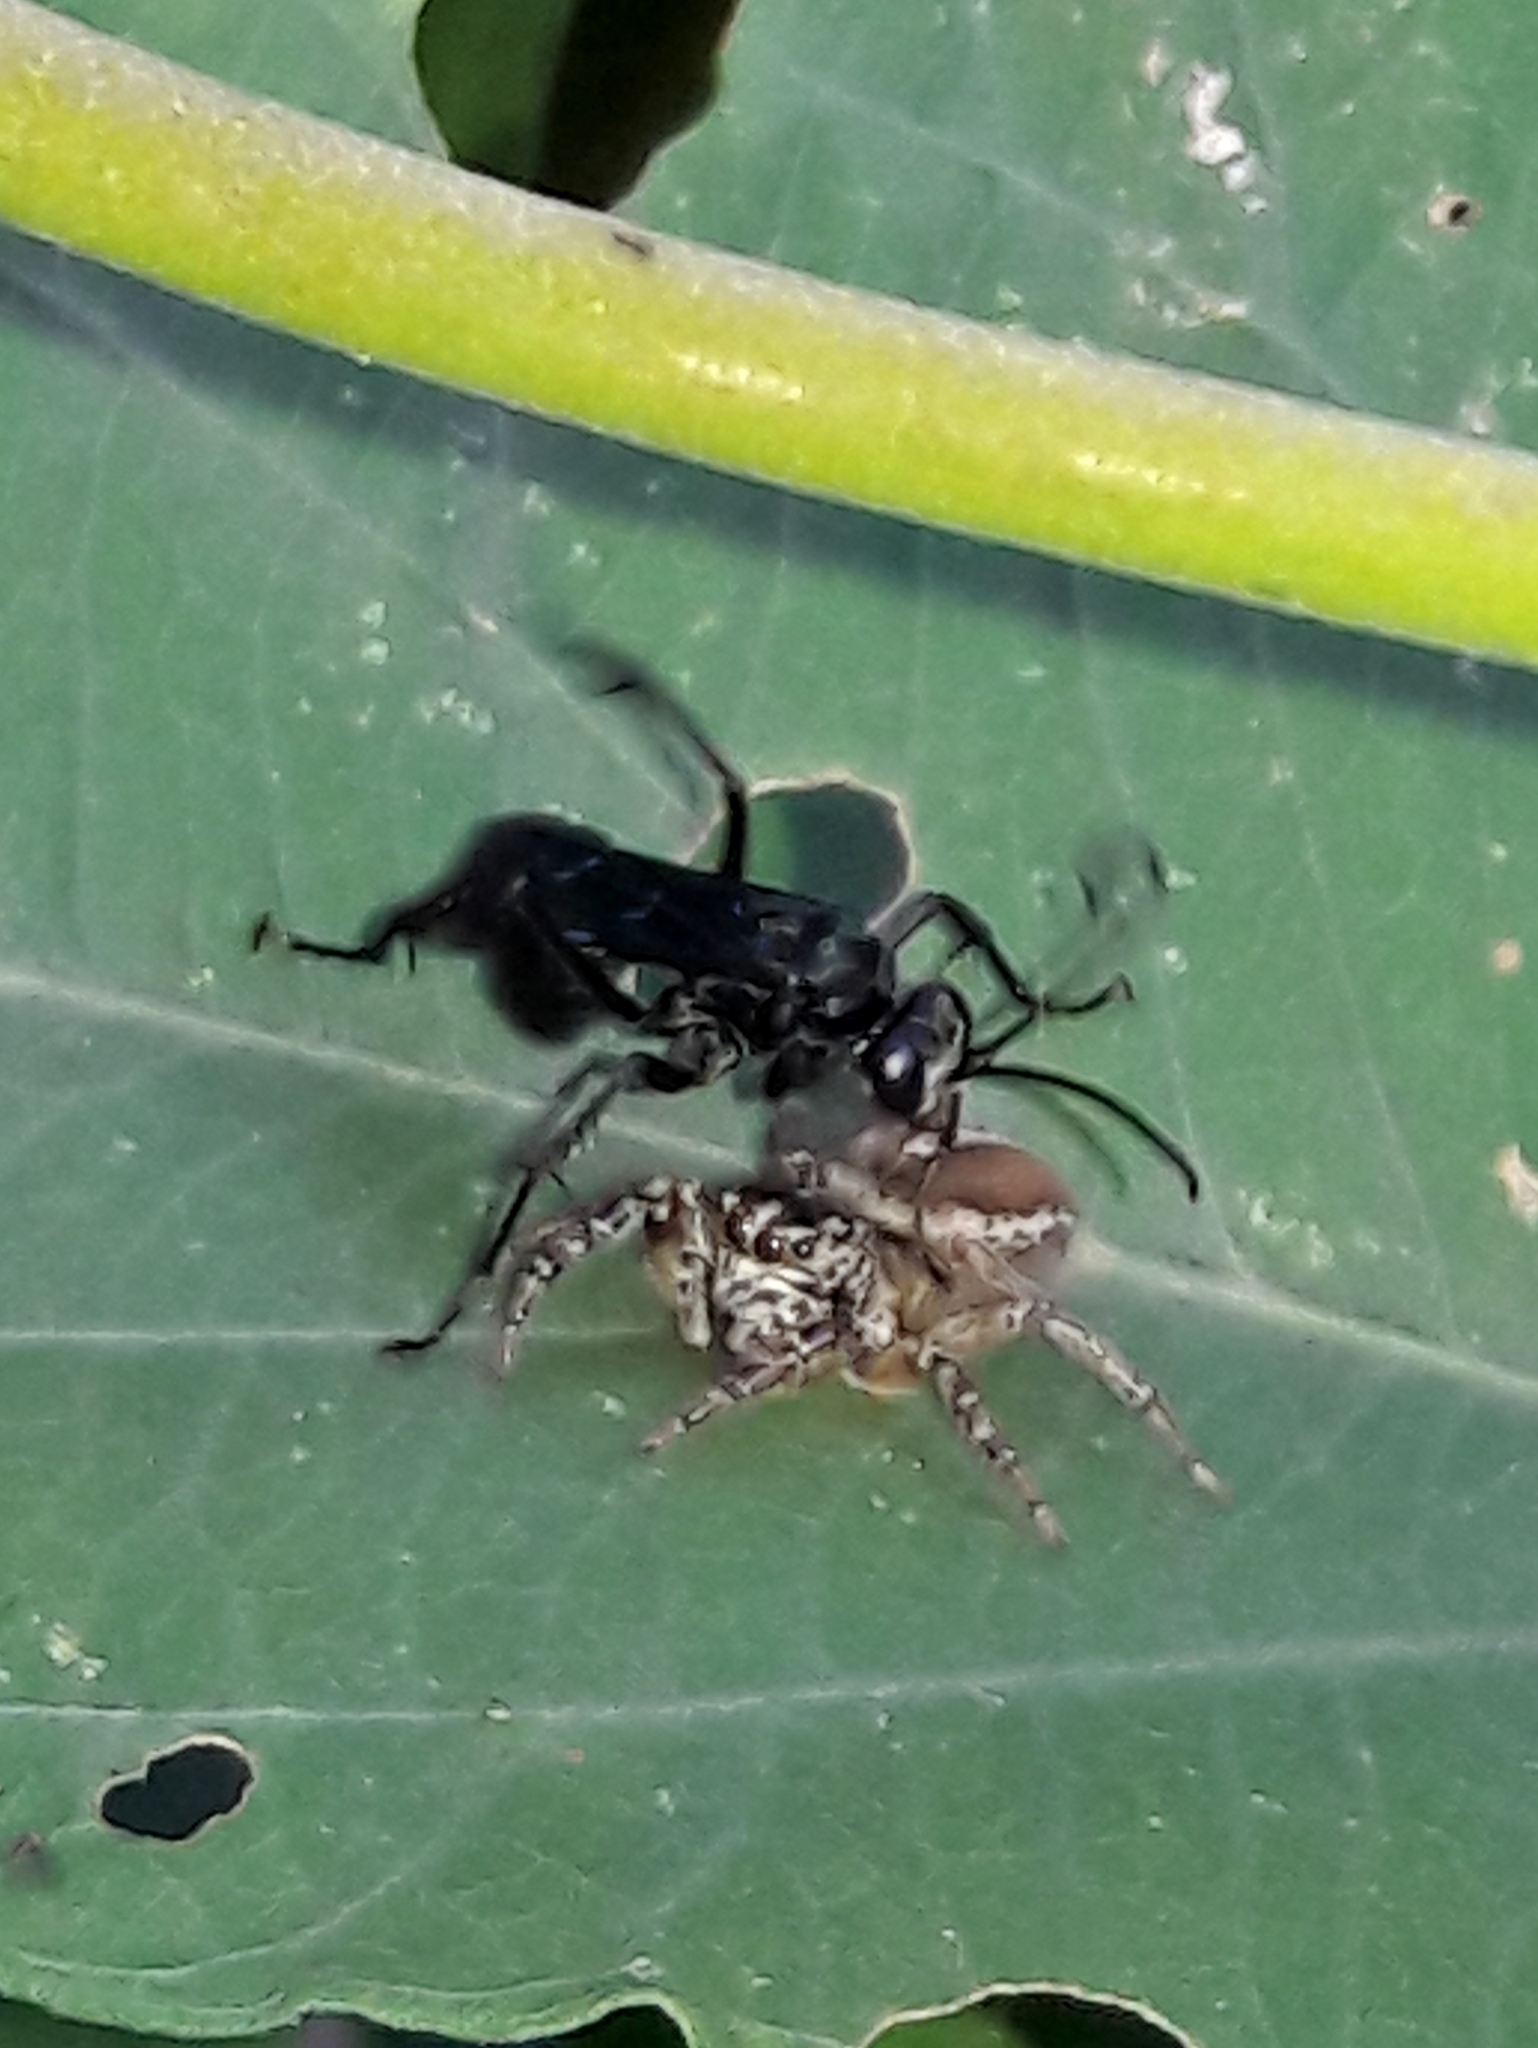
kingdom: Animalia
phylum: Arthropoda
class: Arachnida
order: Araneae
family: Salticidae
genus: Freya
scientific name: Freya nigrotaeniata
